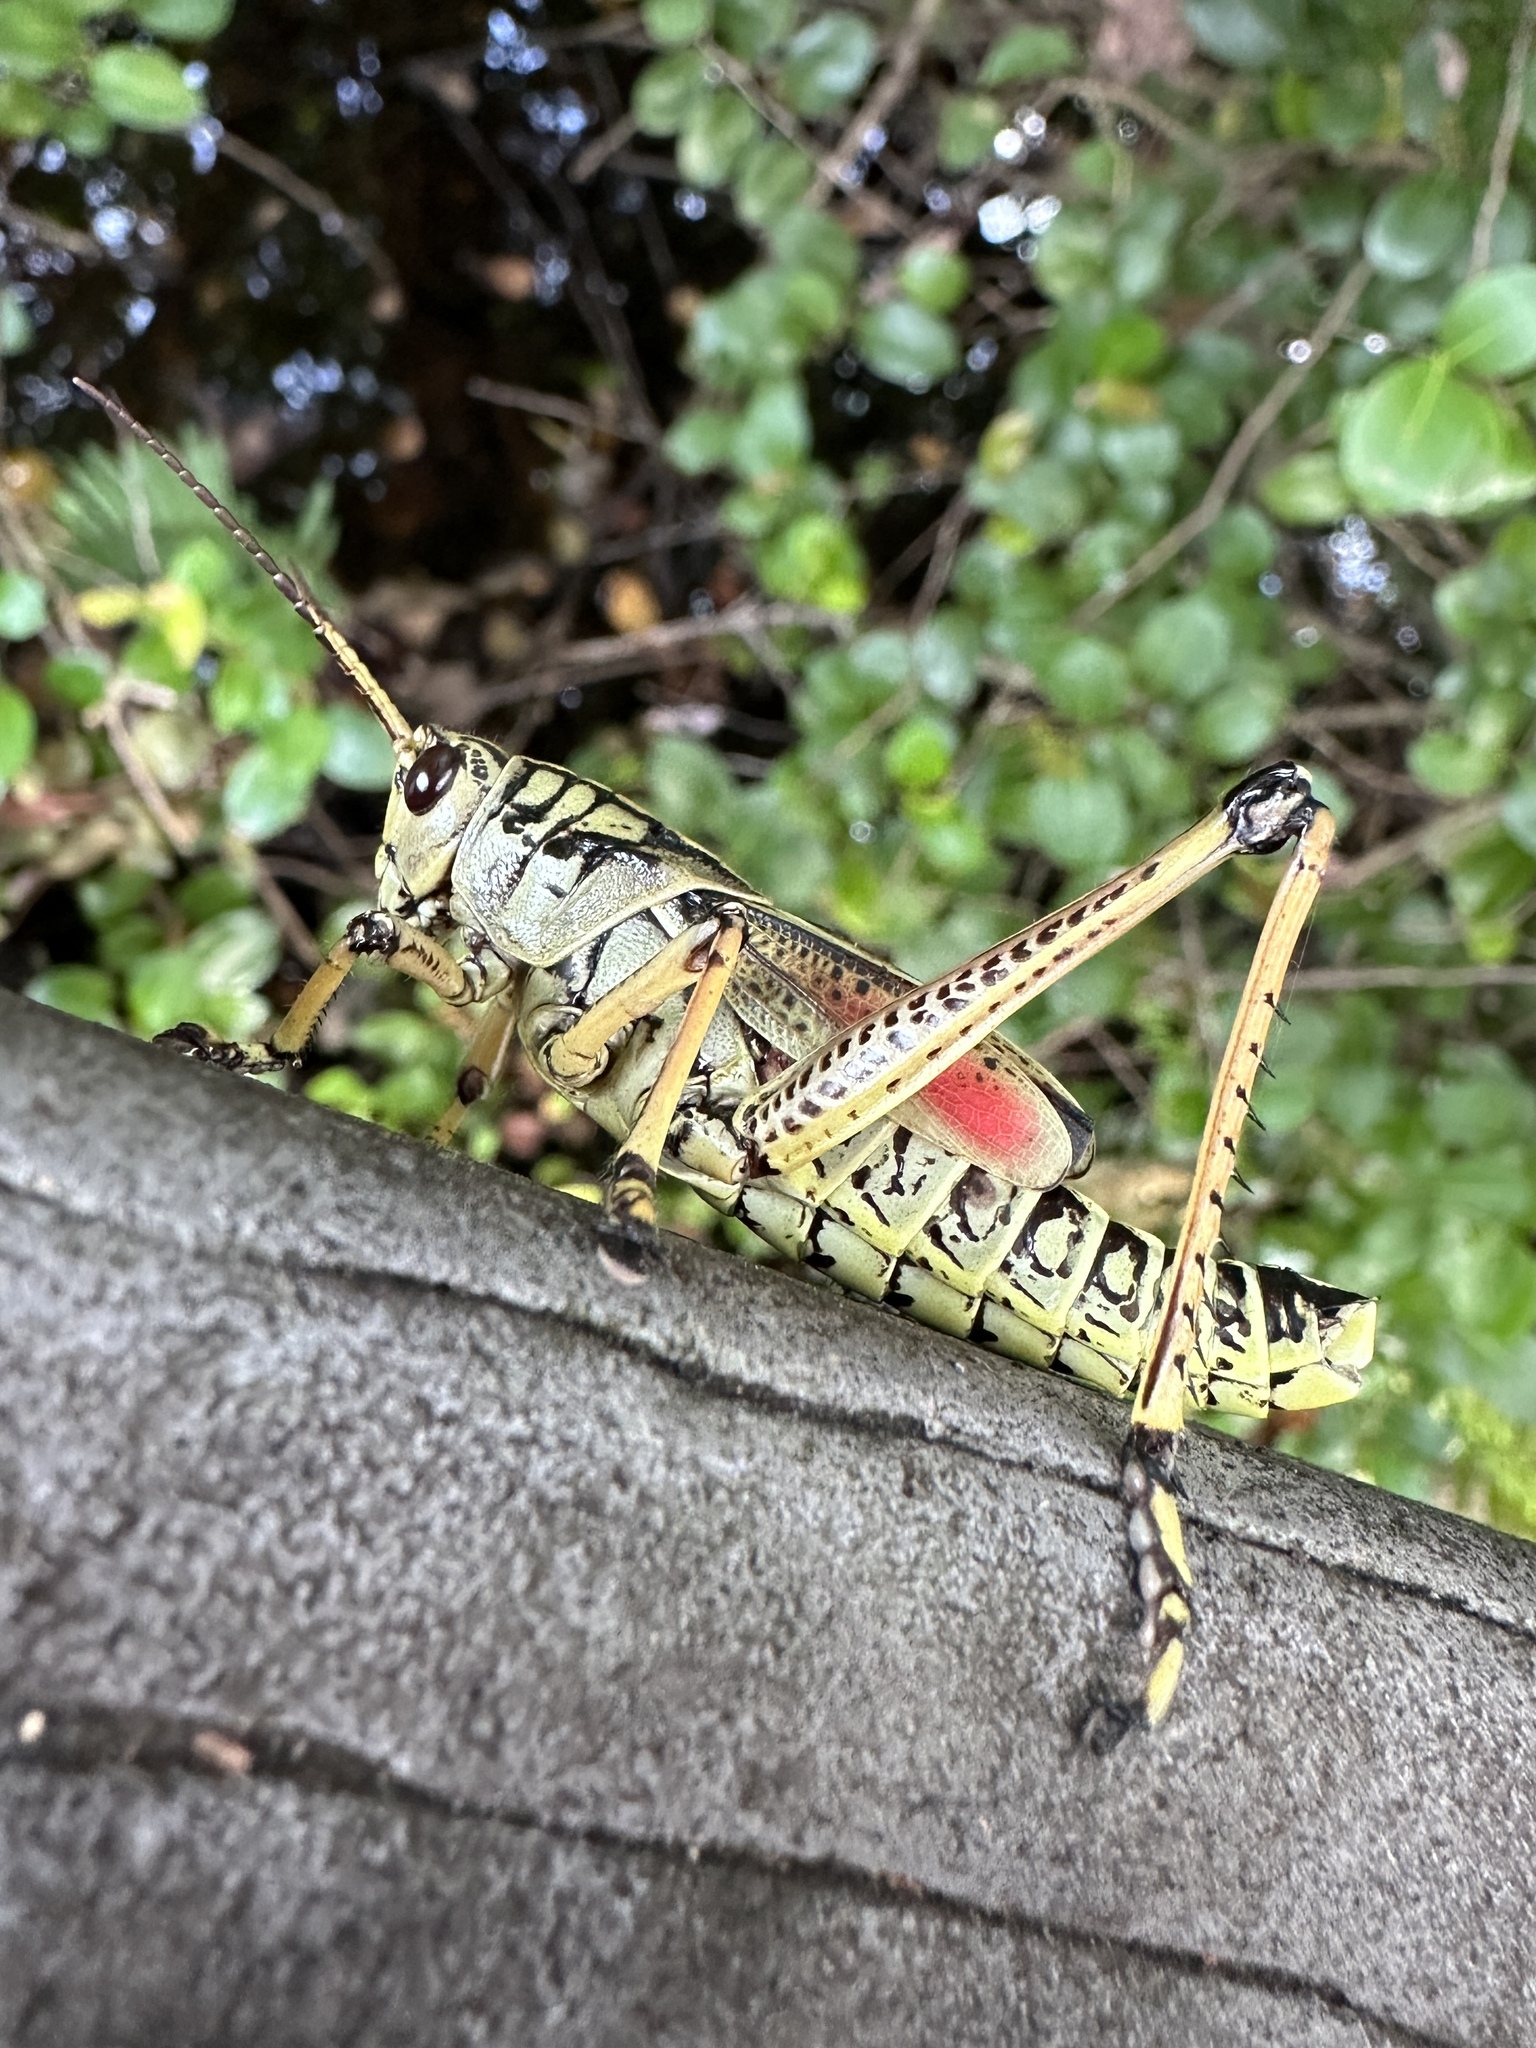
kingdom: Animalia
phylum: Arthropoda
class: Insecta
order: Orthoptera
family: Romaleidae
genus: Romalea
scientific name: Romalea microptera
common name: Eastern lubber grasshopper
